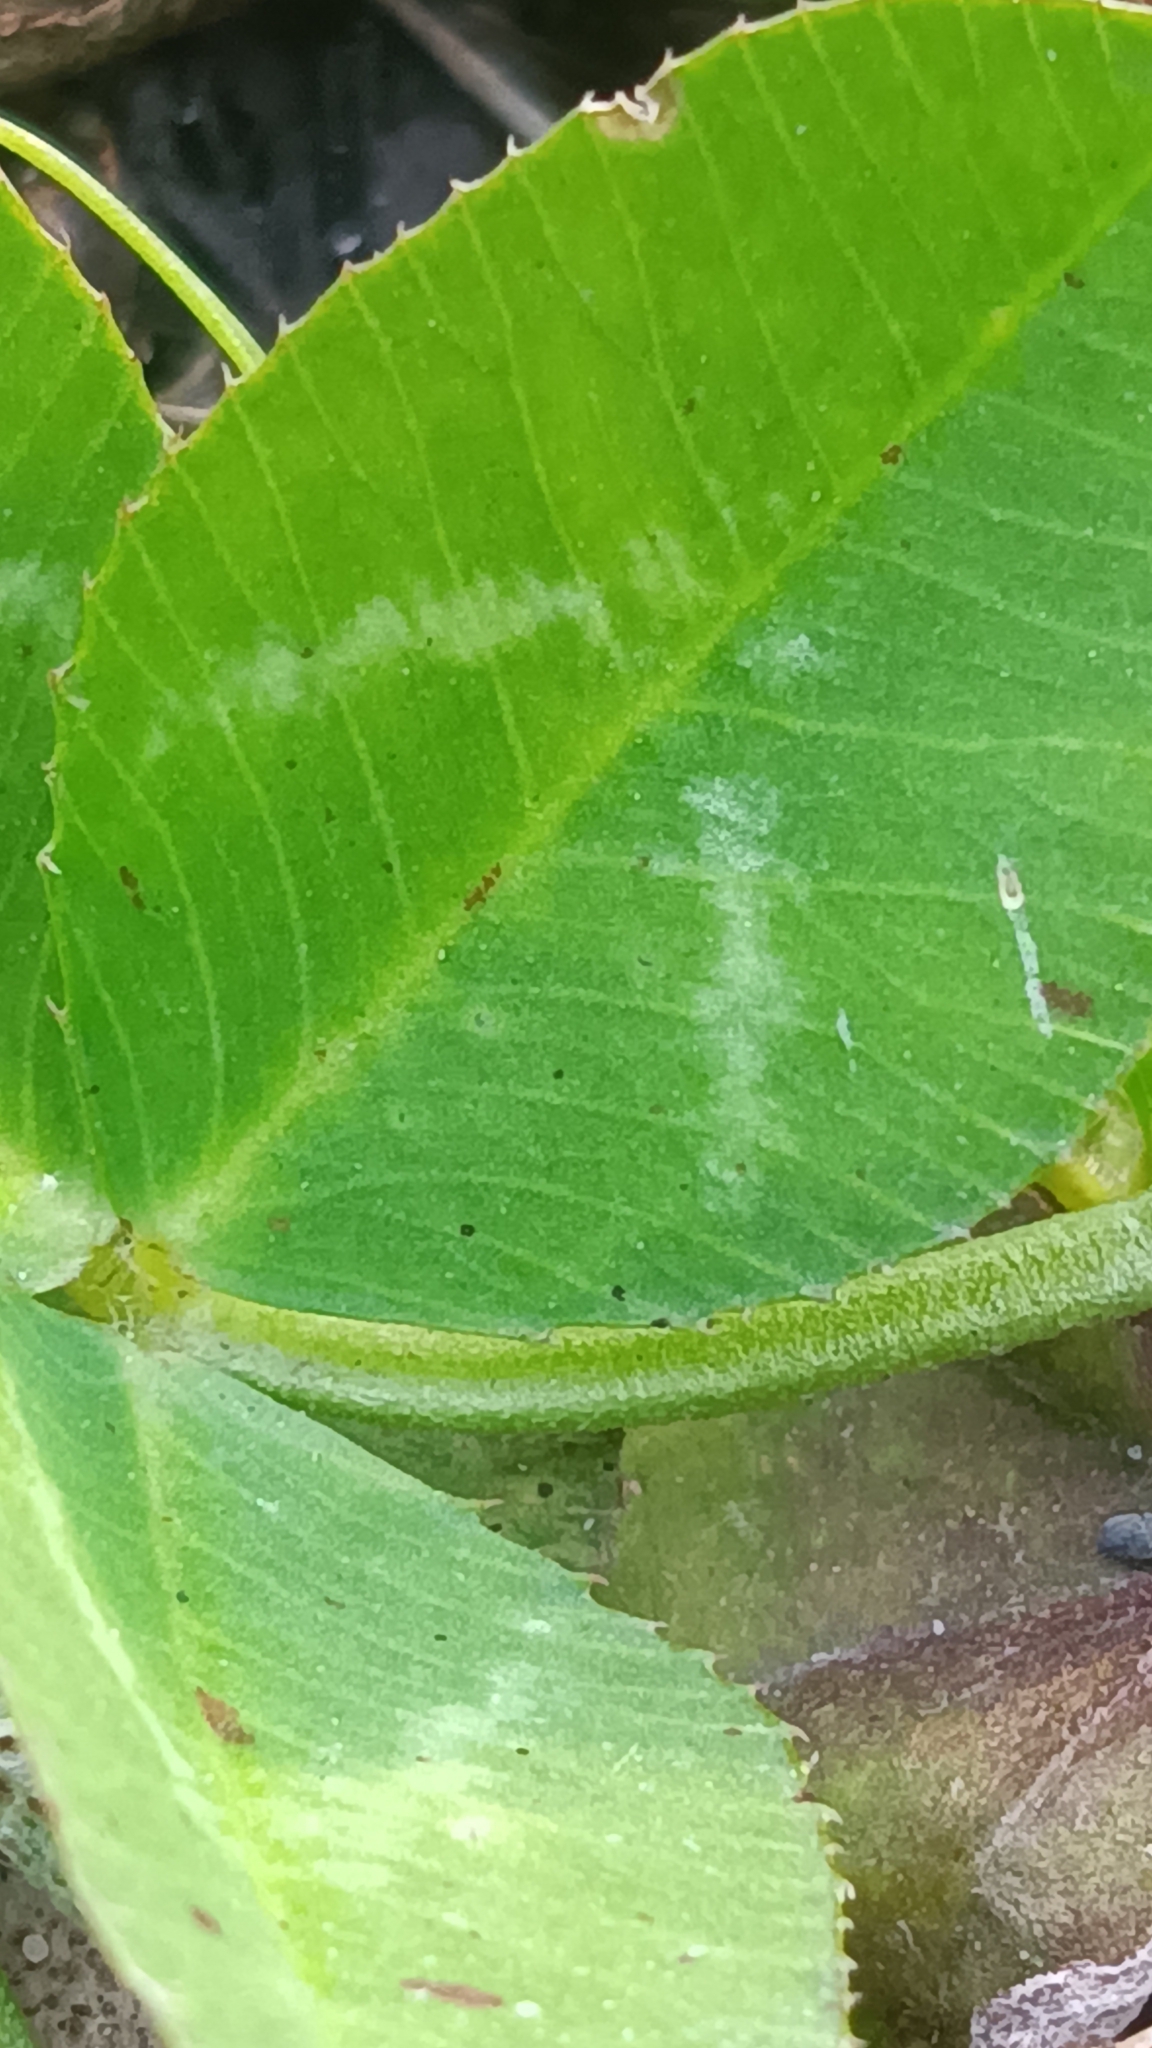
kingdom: Plantae
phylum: Tracheophyta
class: Magnoliopsida
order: Fabales
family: Fabaceae
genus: Trifolium
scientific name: Trifolium repens
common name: White clover
